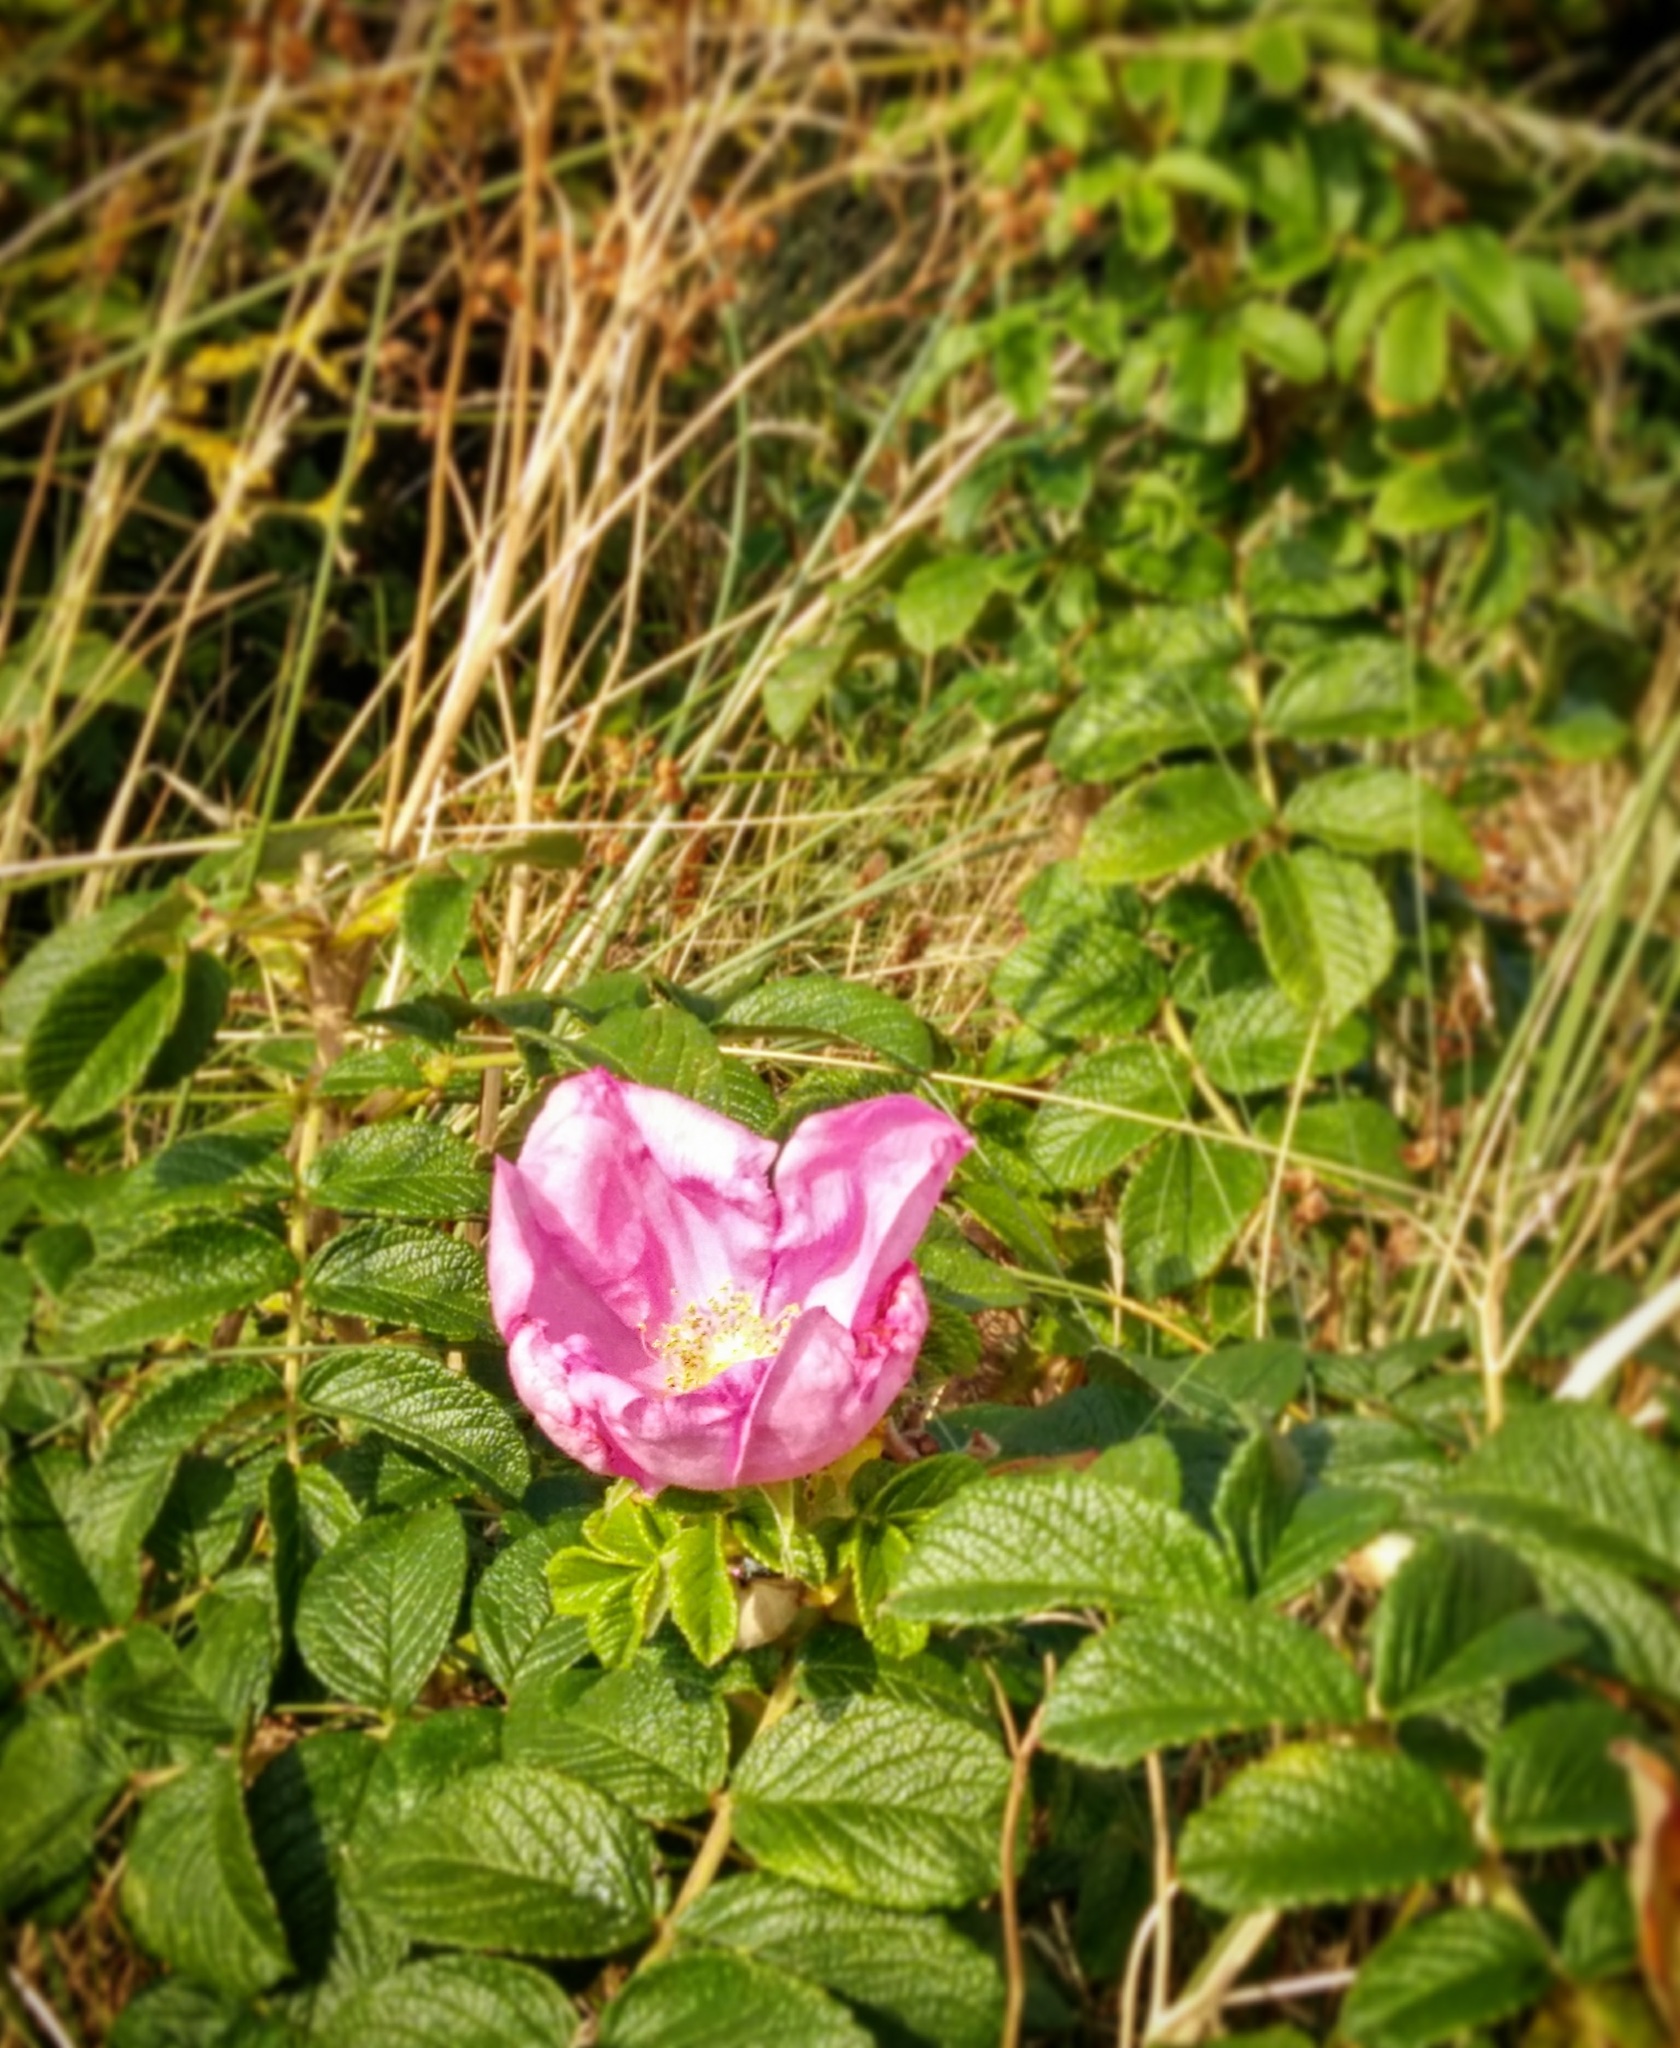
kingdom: Plantae
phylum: Tracheophyta
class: Magnoliopsida
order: Rosales
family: Rosaceae
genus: Rosa
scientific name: Rosa rugosa
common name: Japanese rose
